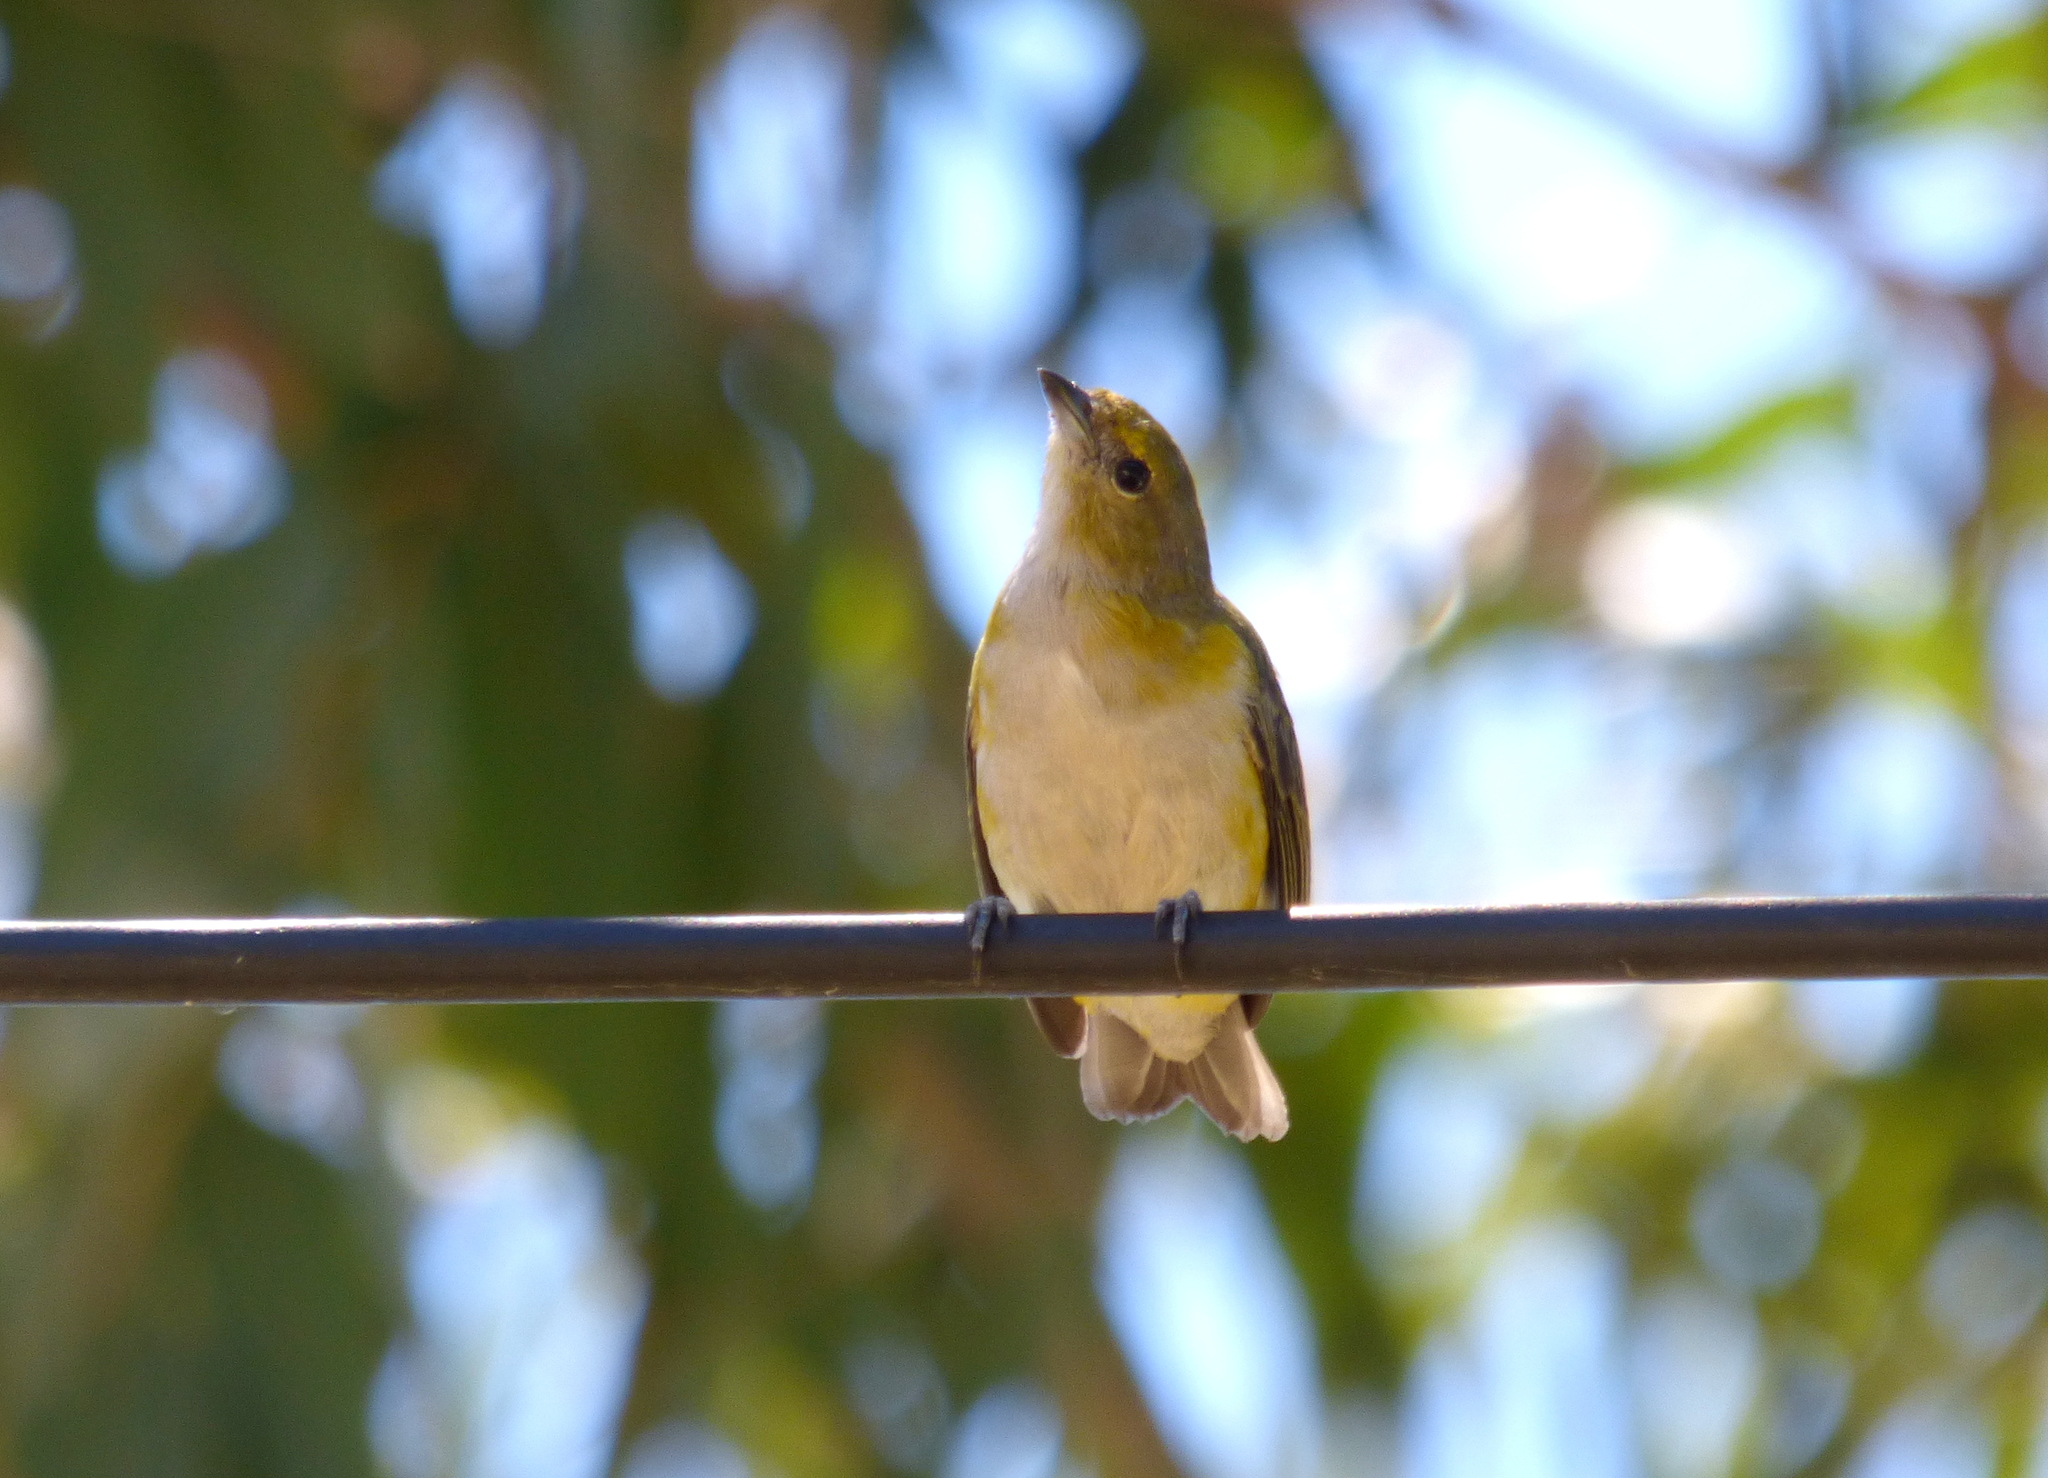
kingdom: Animalia
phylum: Chordata
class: Aves
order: Passeriformes
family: Fringillidae
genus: Euphonia
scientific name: Euphonia chlorotica
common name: Purple-throated euphonia
